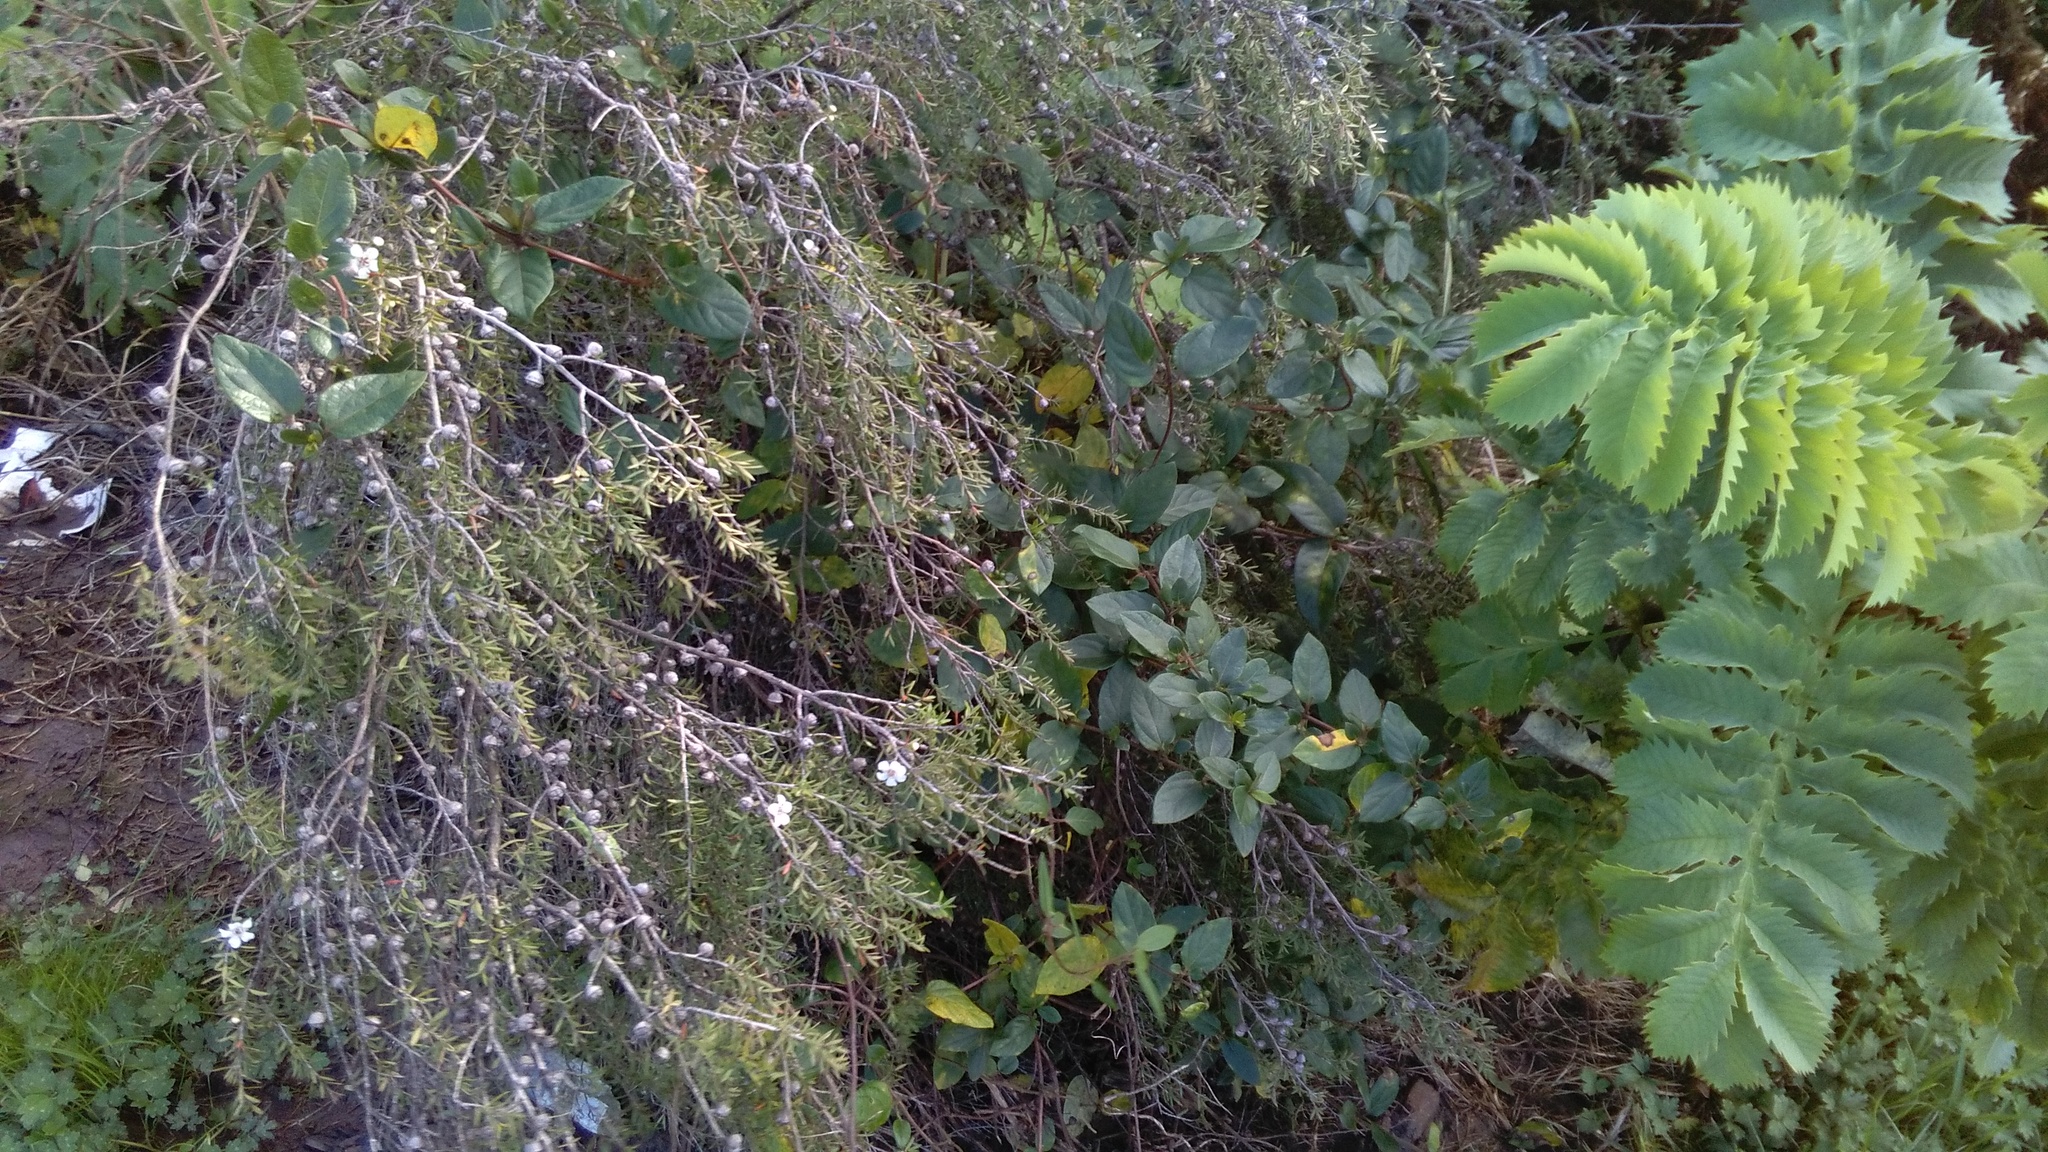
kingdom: Plantae
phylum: Tracheophyta
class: Magnoliopsida
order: Myrtales
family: Myrtaceae
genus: Leptospermum
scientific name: Leptospermum scoparium
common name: Broom tea-tree
